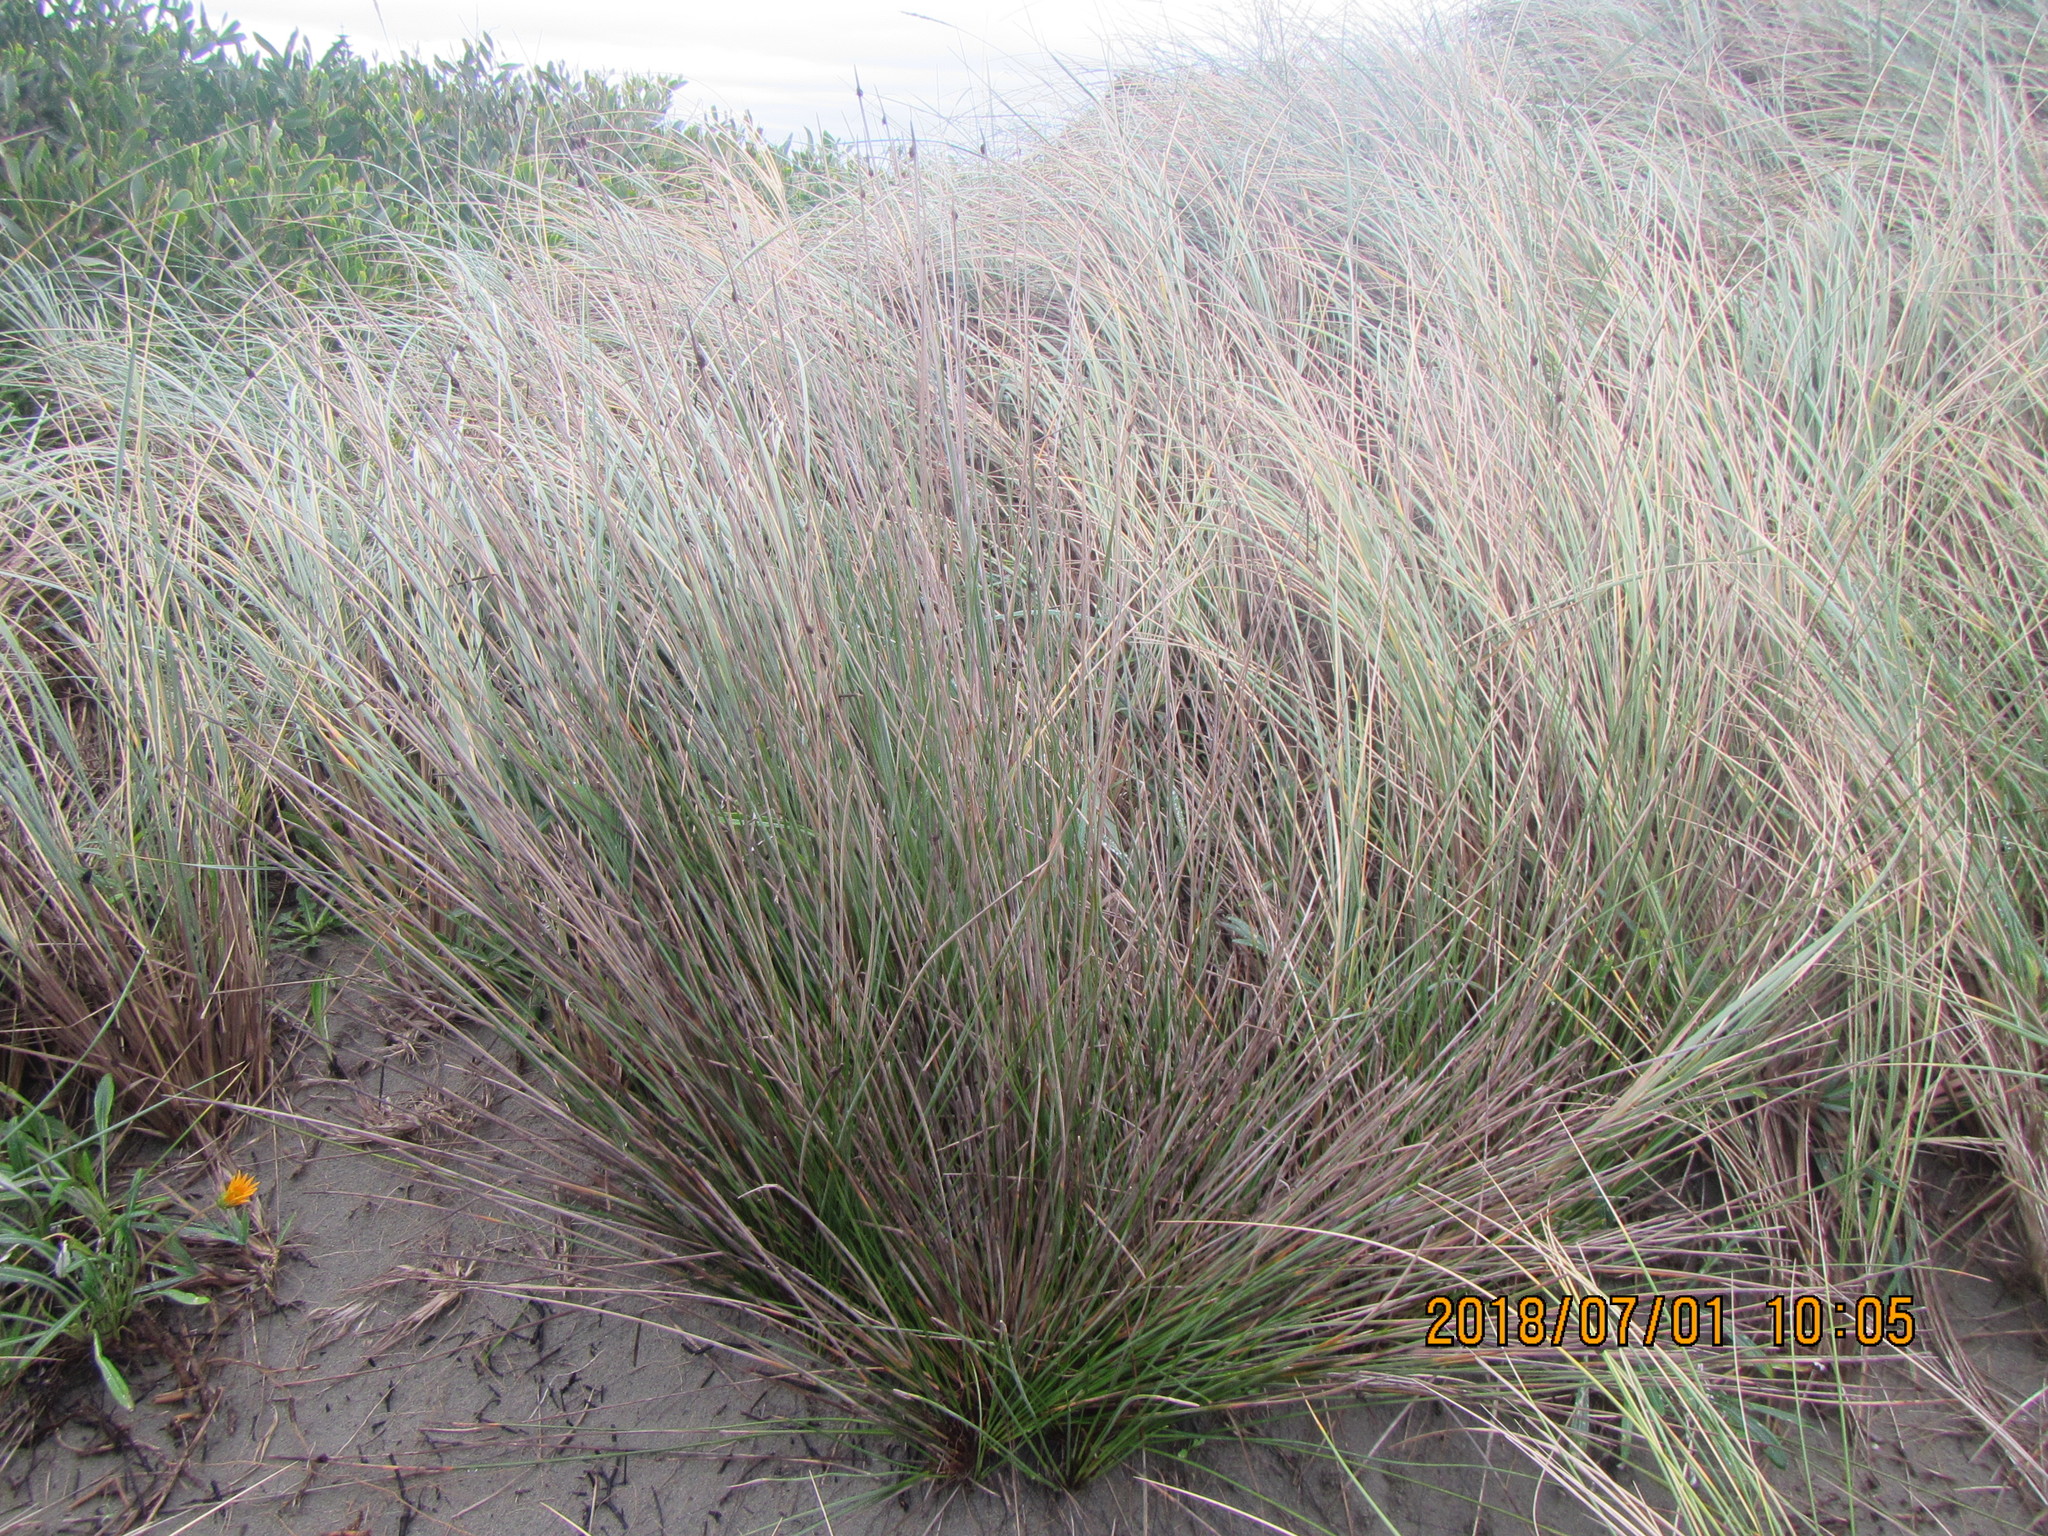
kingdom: Plantae
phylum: Tracheophyta
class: Liliopsida
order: Poales
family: Cyperaceae
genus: Ficinia
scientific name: Ficinia nodosa
